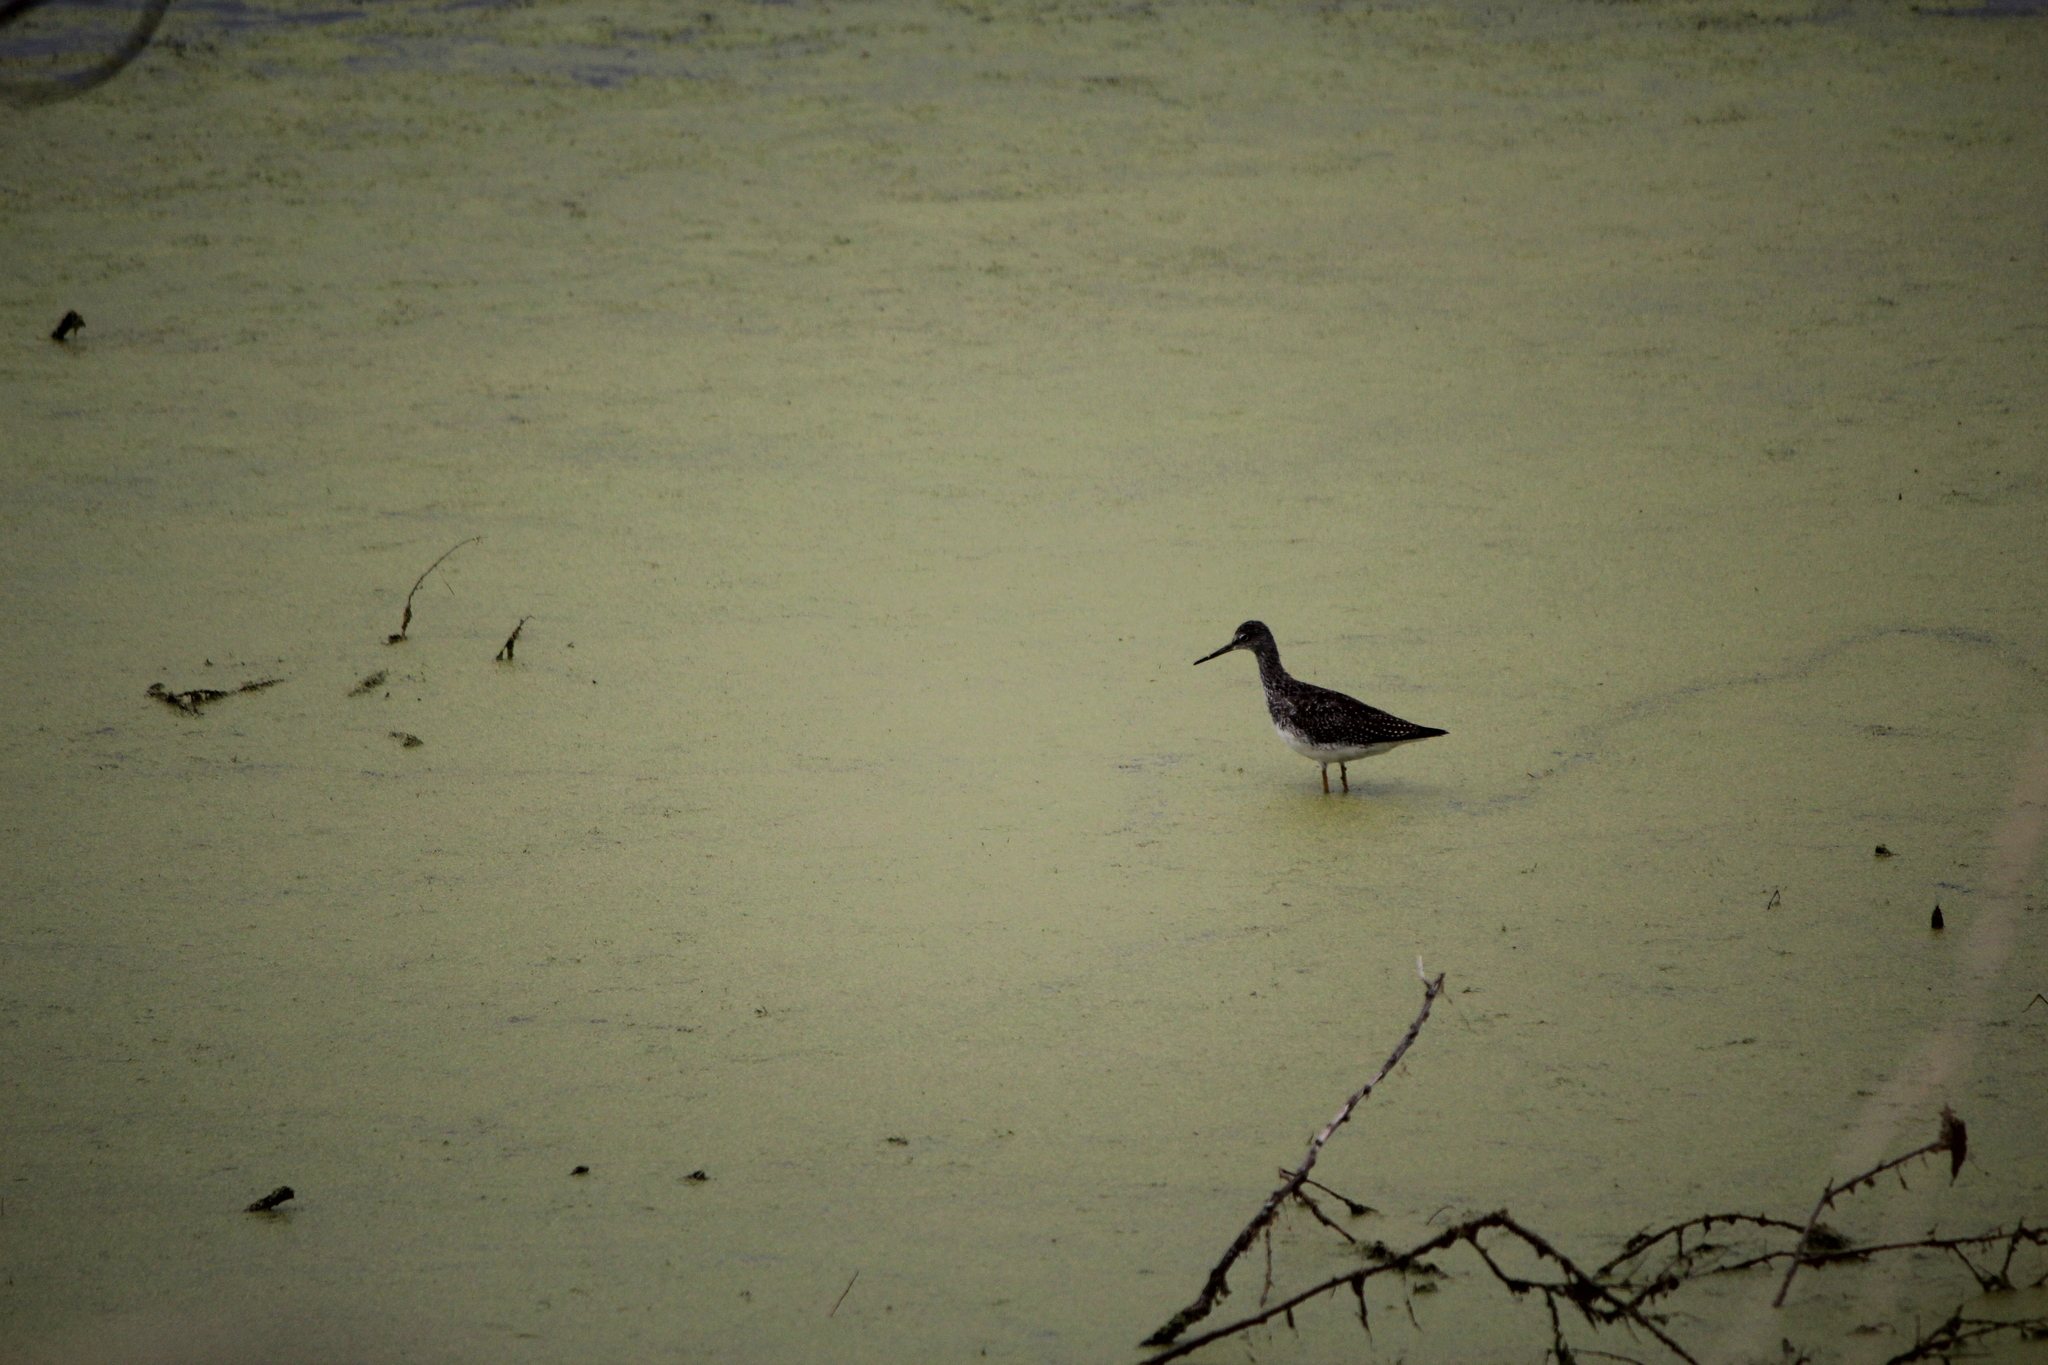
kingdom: Animalia
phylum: Chordata
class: Aves
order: Charadriiformes
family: Scolopacidae
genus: Tringa
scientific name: Tringa melanoleuca
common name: Greater yellowlegs
